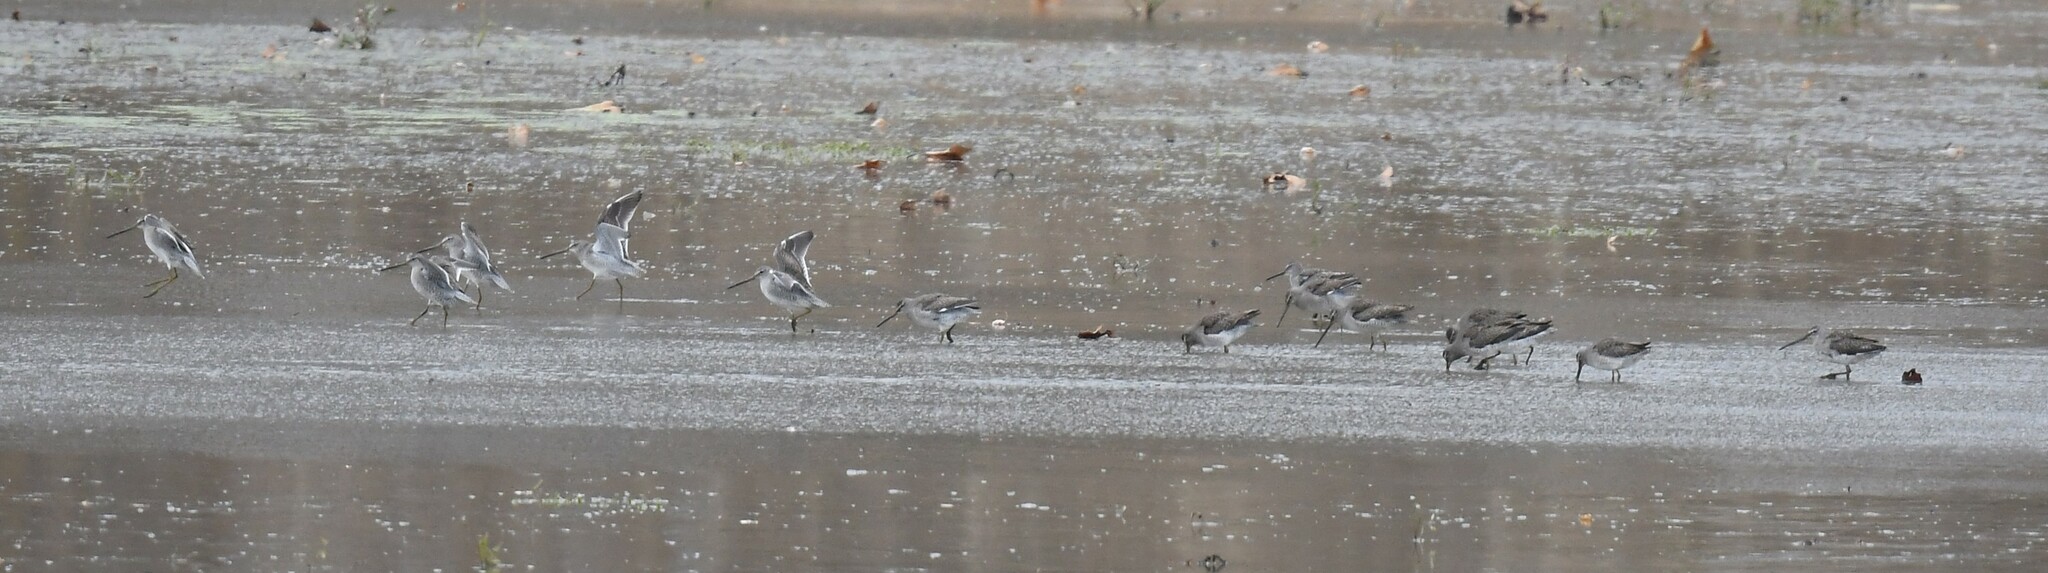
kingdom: Animalia
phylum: Chordata
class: Aves
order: Charadriiformes
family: Scolopacidae
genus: Limnodromus
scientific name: Limnodromus scolopaceus
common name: Long-billed dowitcher
